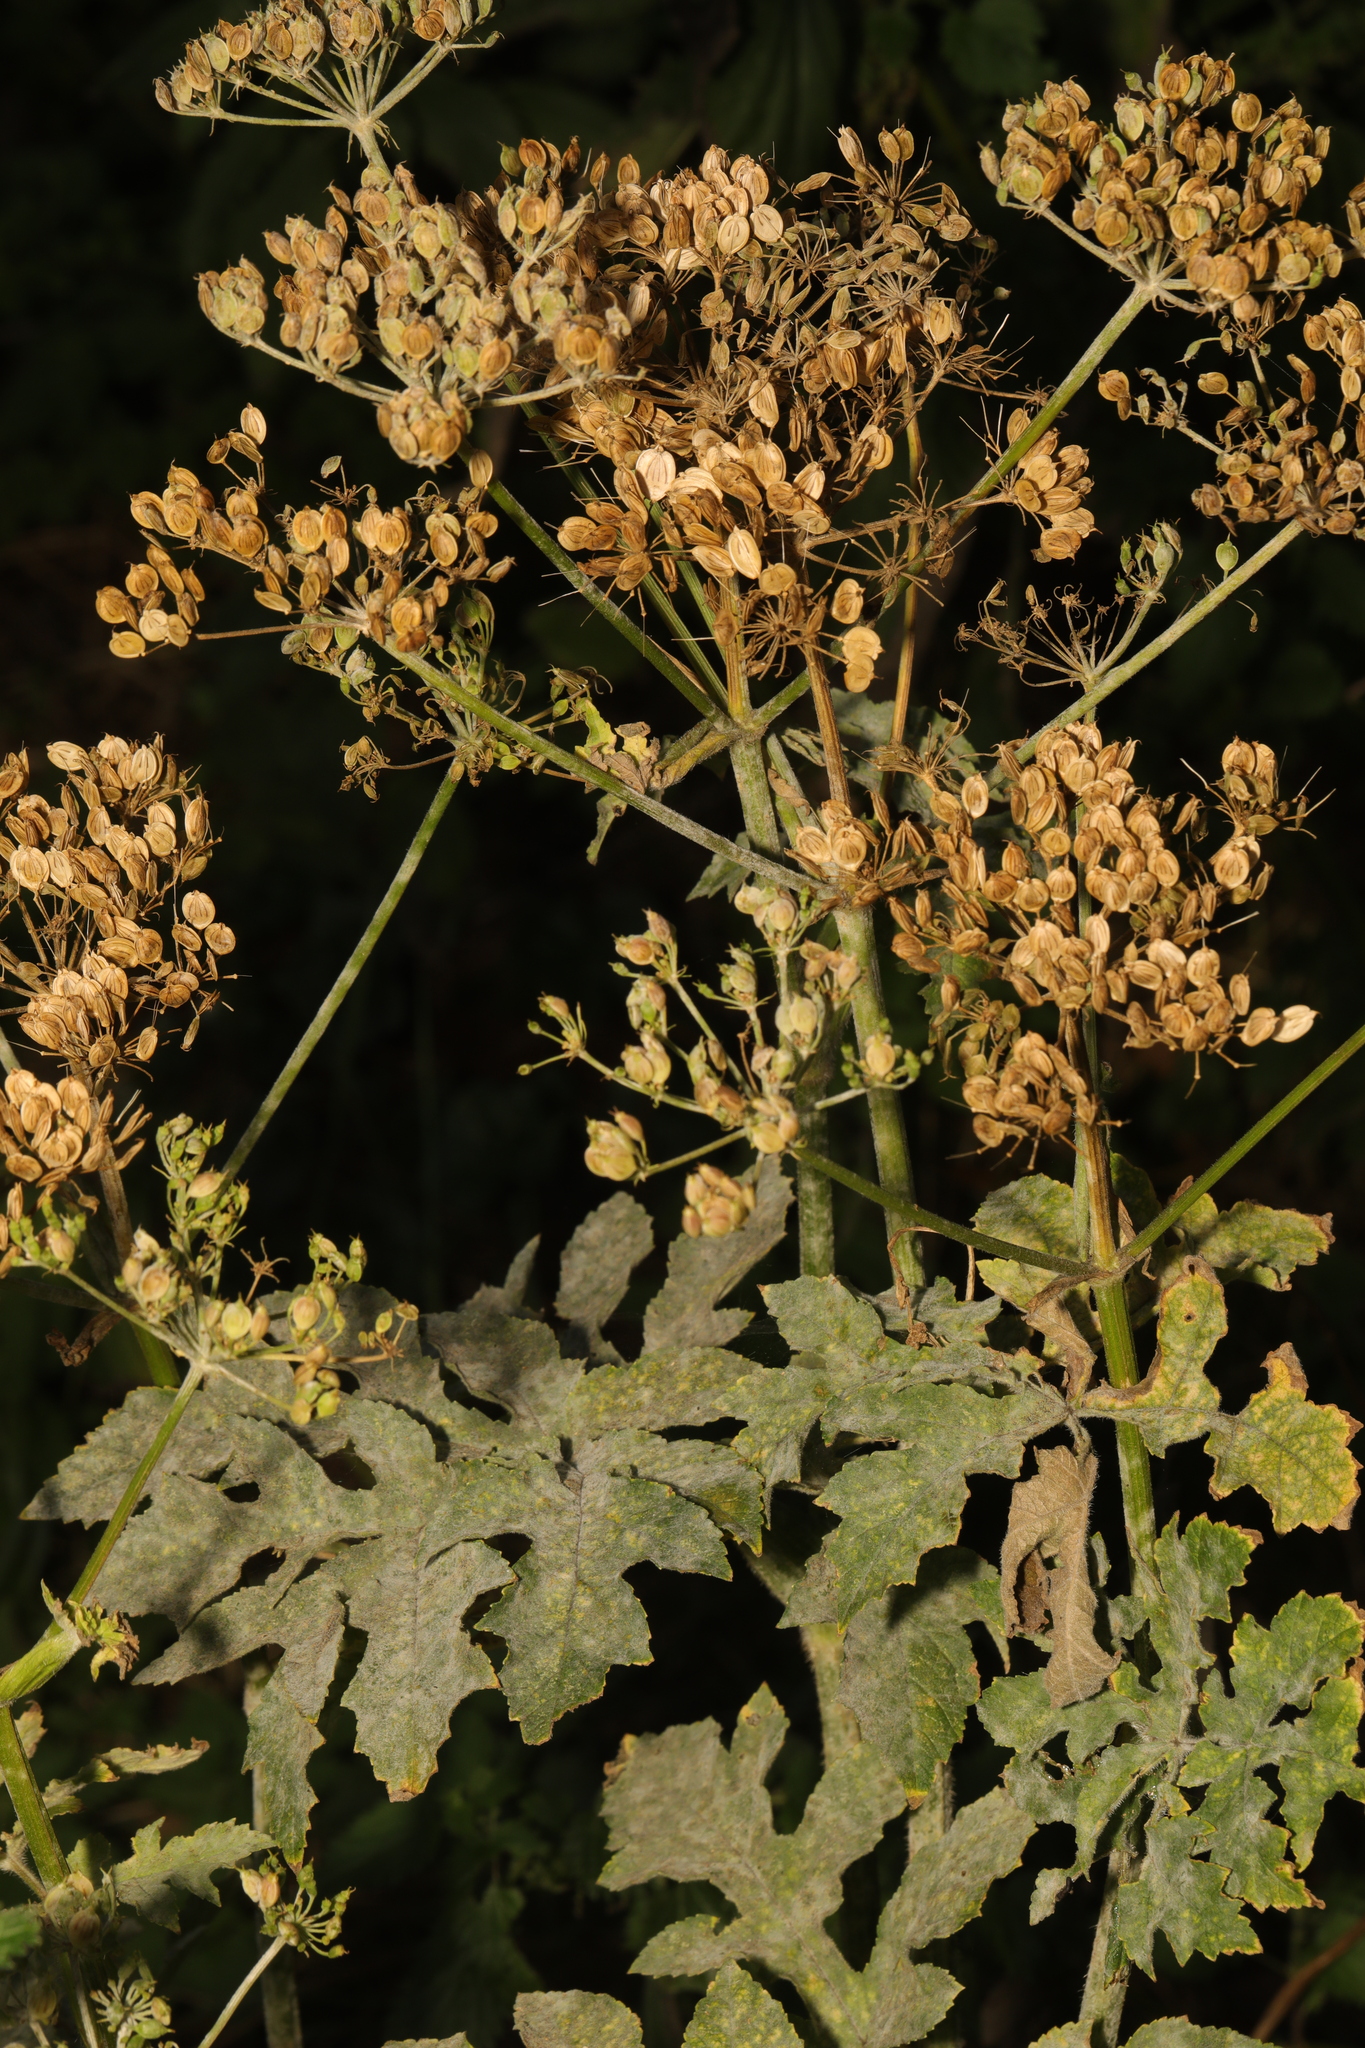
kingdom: Plantae
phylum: Tracheophyta
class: Magnoliopsida
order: Apiales
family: Apiaceae
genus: Heracleum
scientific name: Heracleum sphondylium
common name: Hogweed
